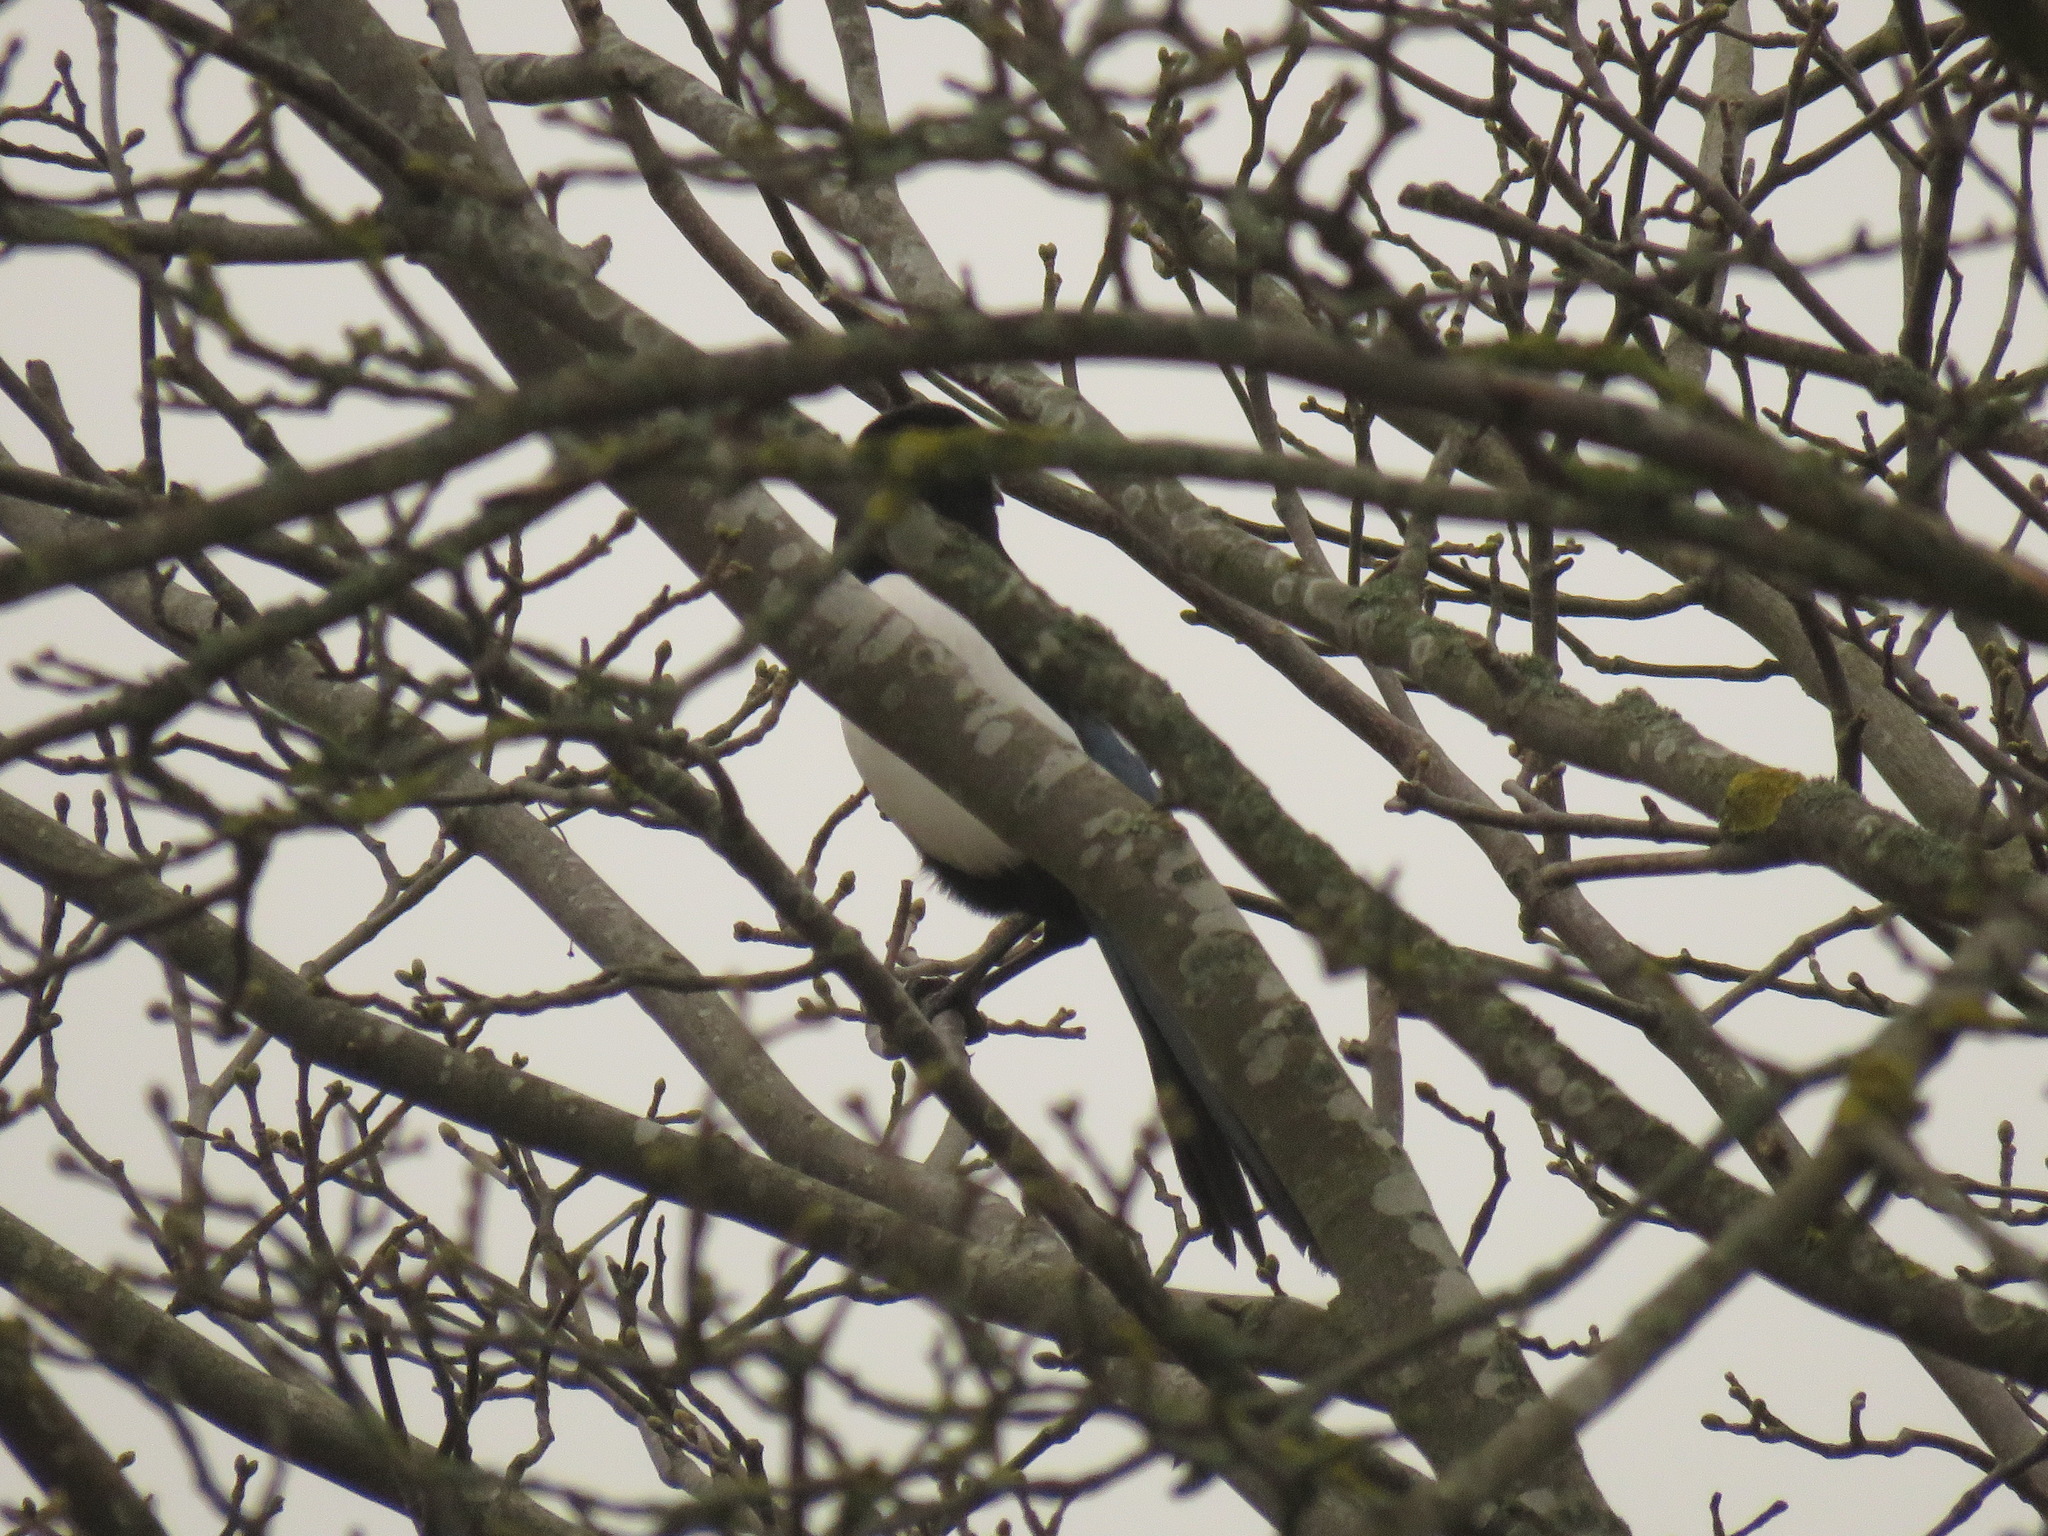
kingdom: Animalia
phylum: Chordata
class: Aves
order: Passeriformes
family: Corvidae
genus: Pica
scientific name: Pica pica
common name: Eurasian magpie
